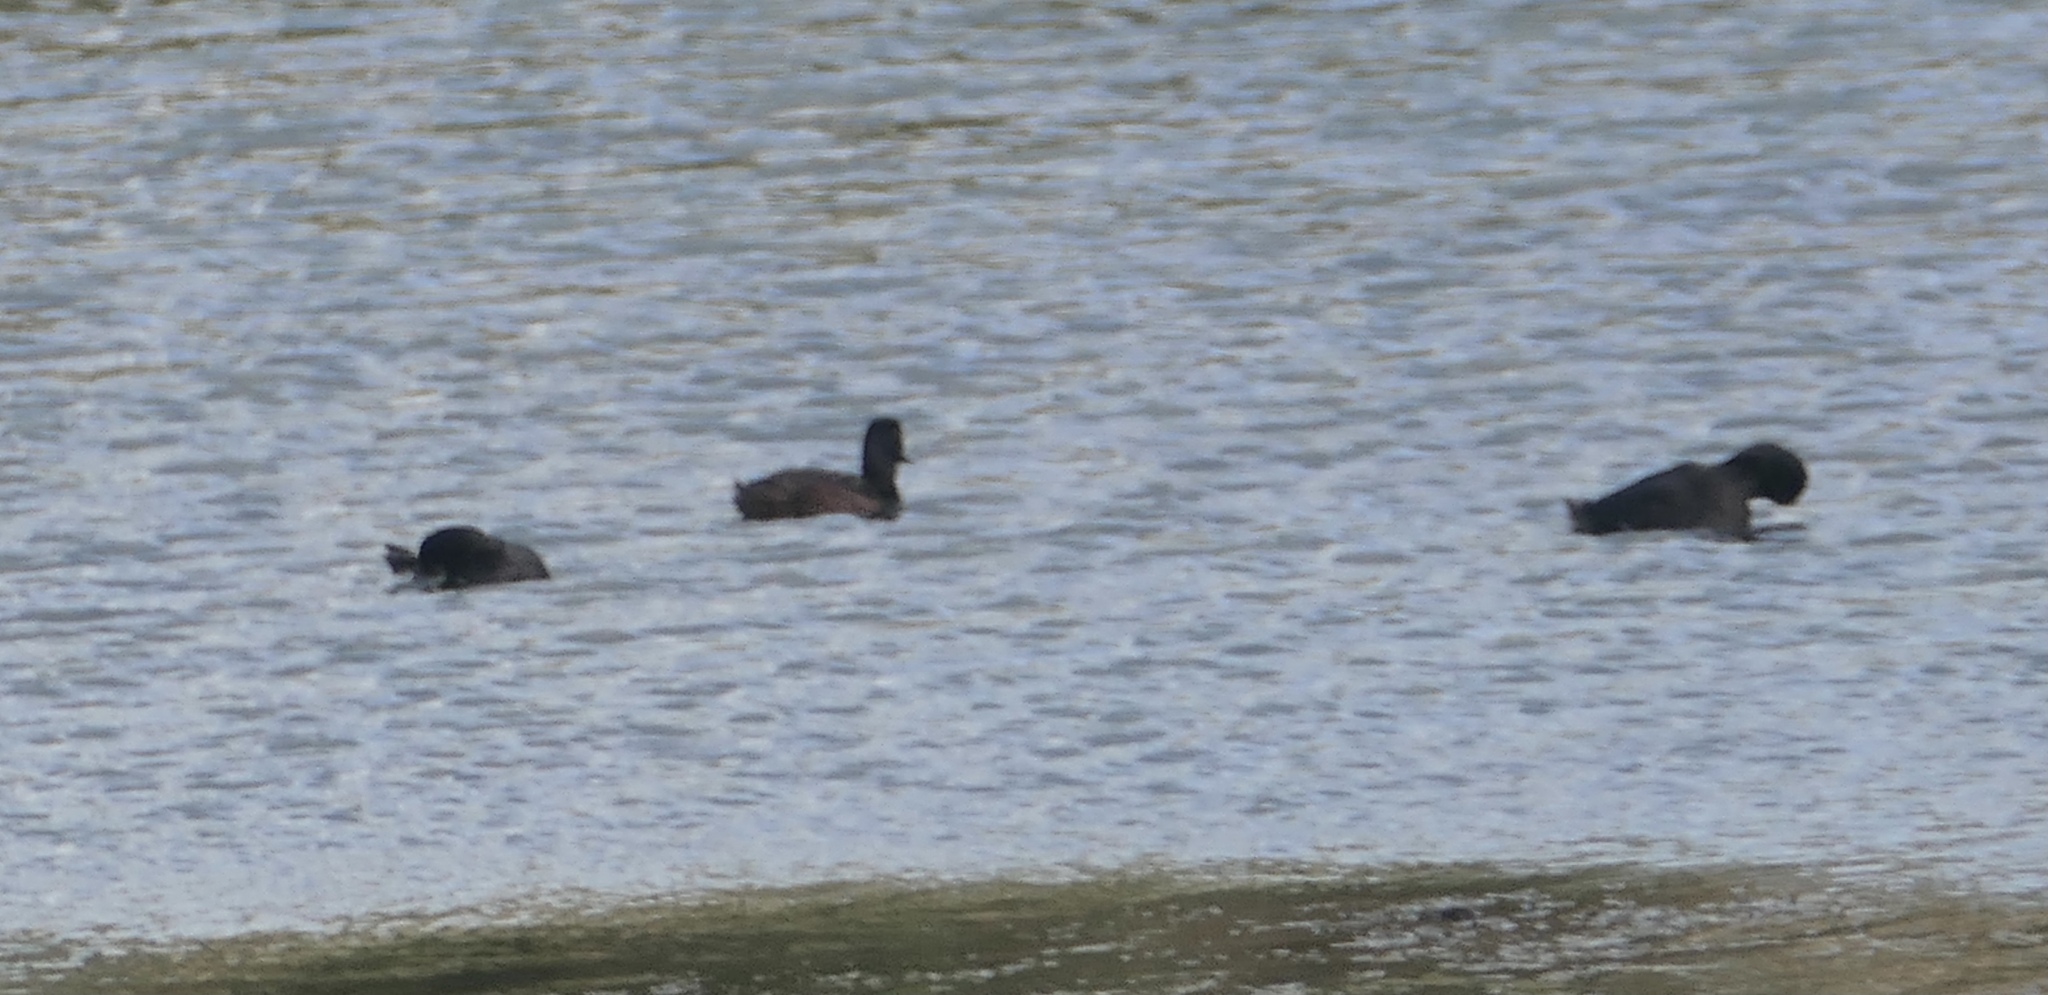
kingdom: Animalia
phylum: Chordata
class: Aves
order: Anseriformes
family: Anatidae
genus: Aythya
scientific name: Aythya novaeseelandiae
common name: New zealand scaup
